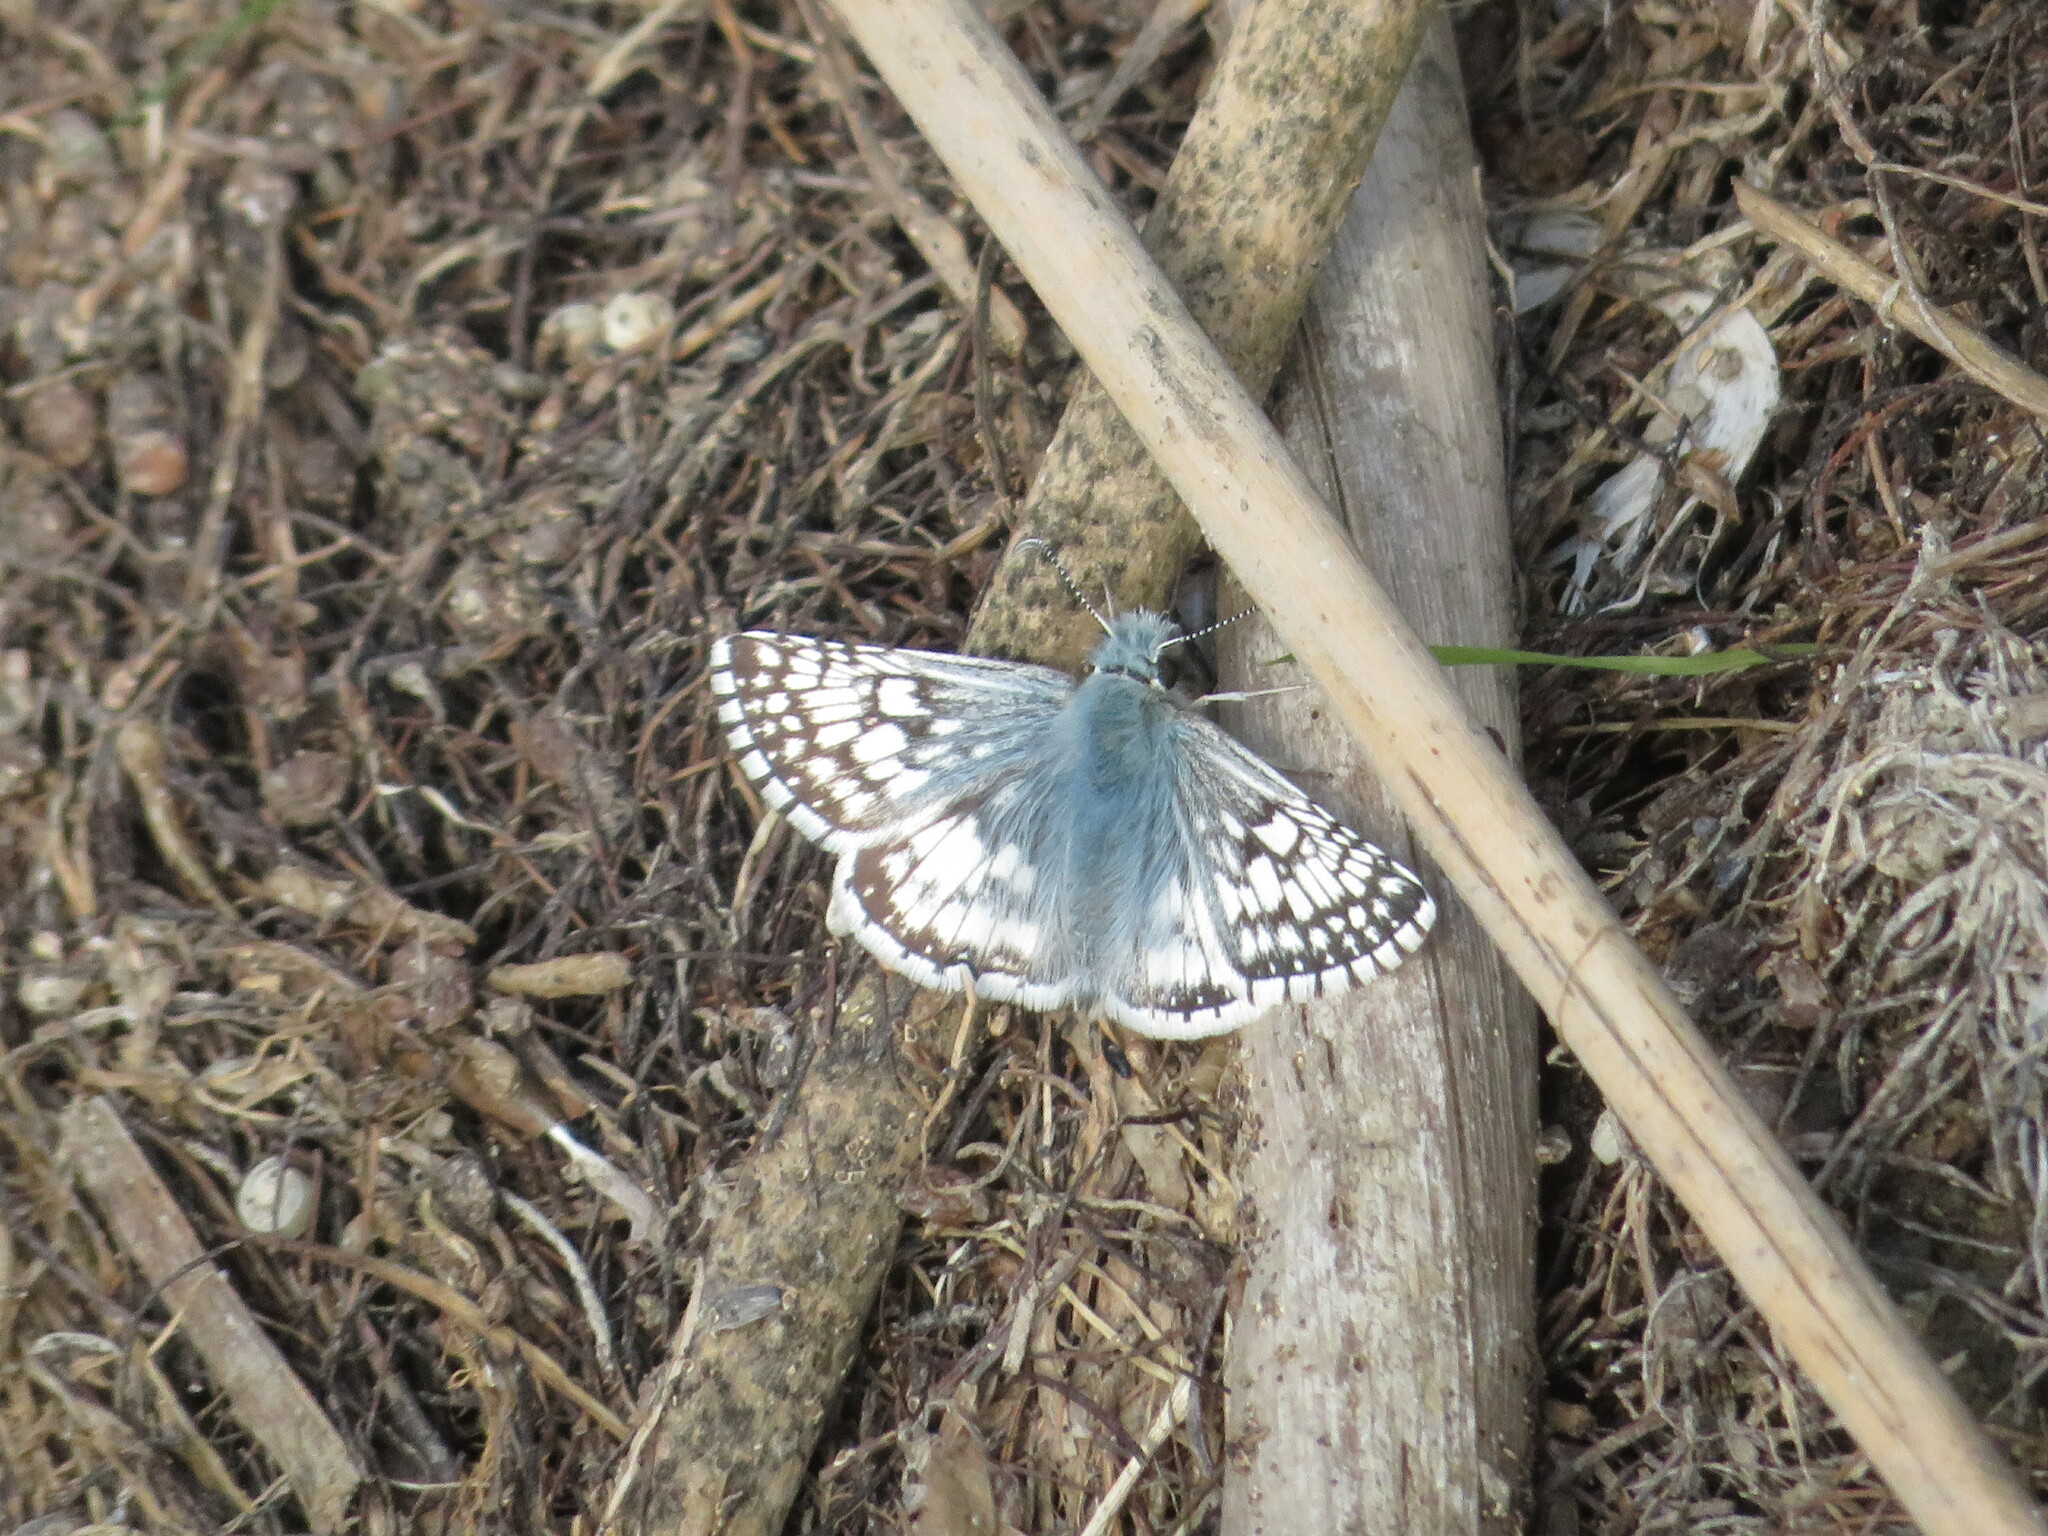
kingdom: Animalia
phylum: Arthropoda
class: Insecta
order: Lepidoptera
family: Hesperiidae
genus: Burnsius
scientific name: Burnsius communis
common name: Common checkered-skipper
